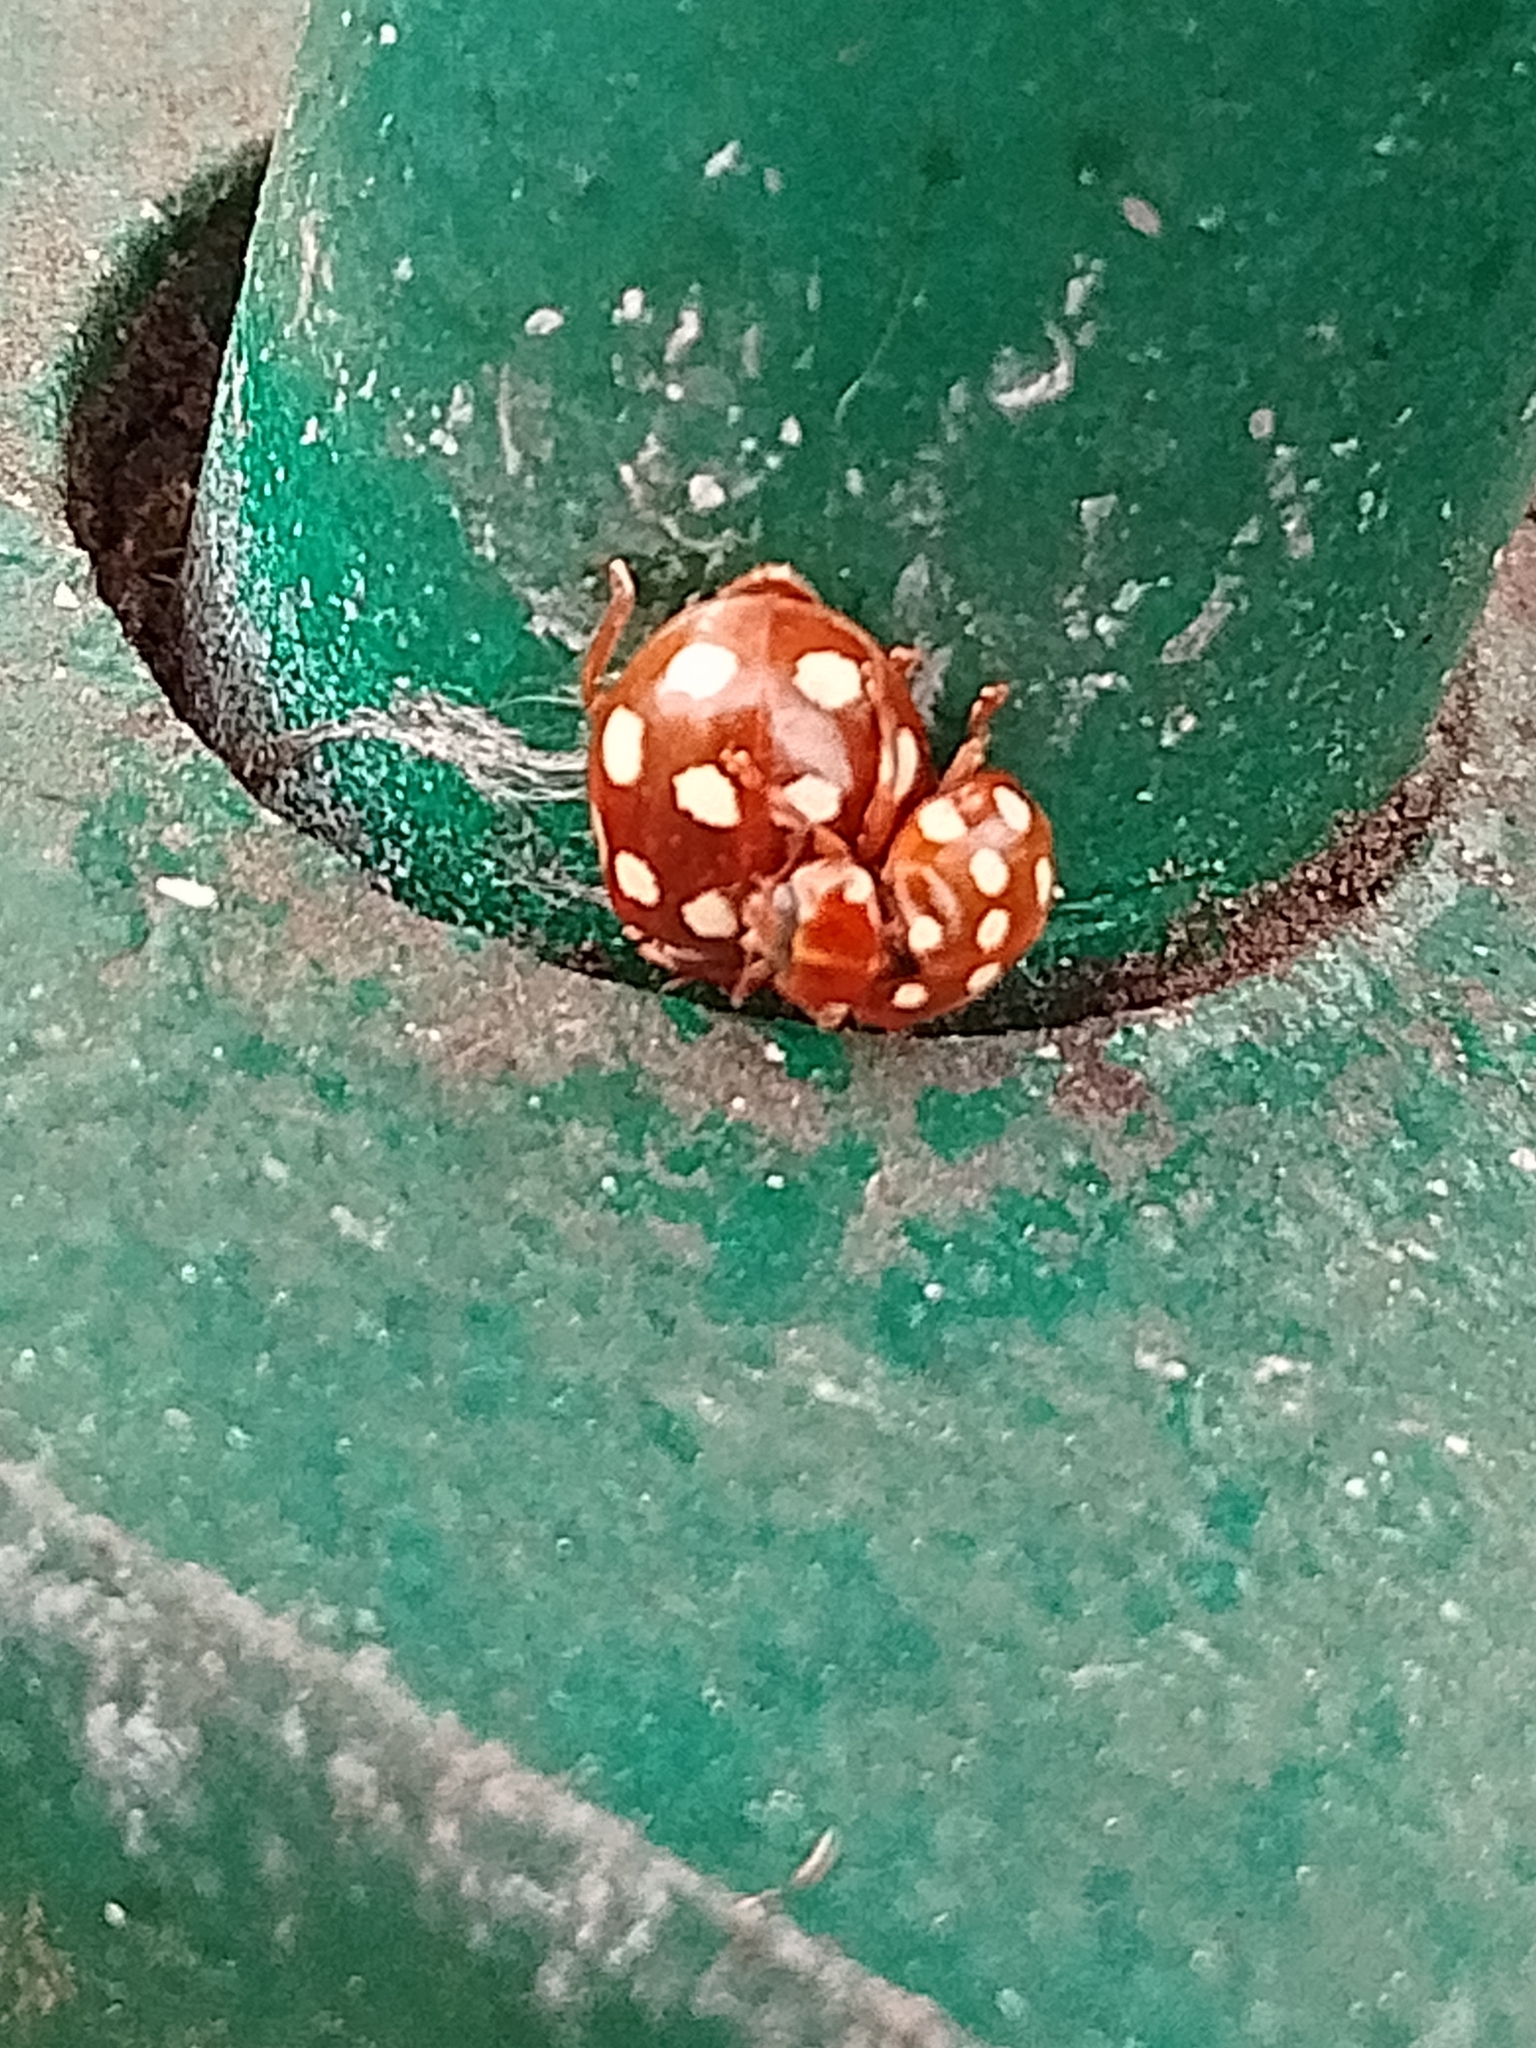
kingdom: Animalia
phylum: Arthropoda
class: Insecta
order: Coleoptera
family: Coccinellidae
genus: Calvia
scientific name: Calvia quatuordecimguttata
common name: Cream-spot ladybird
